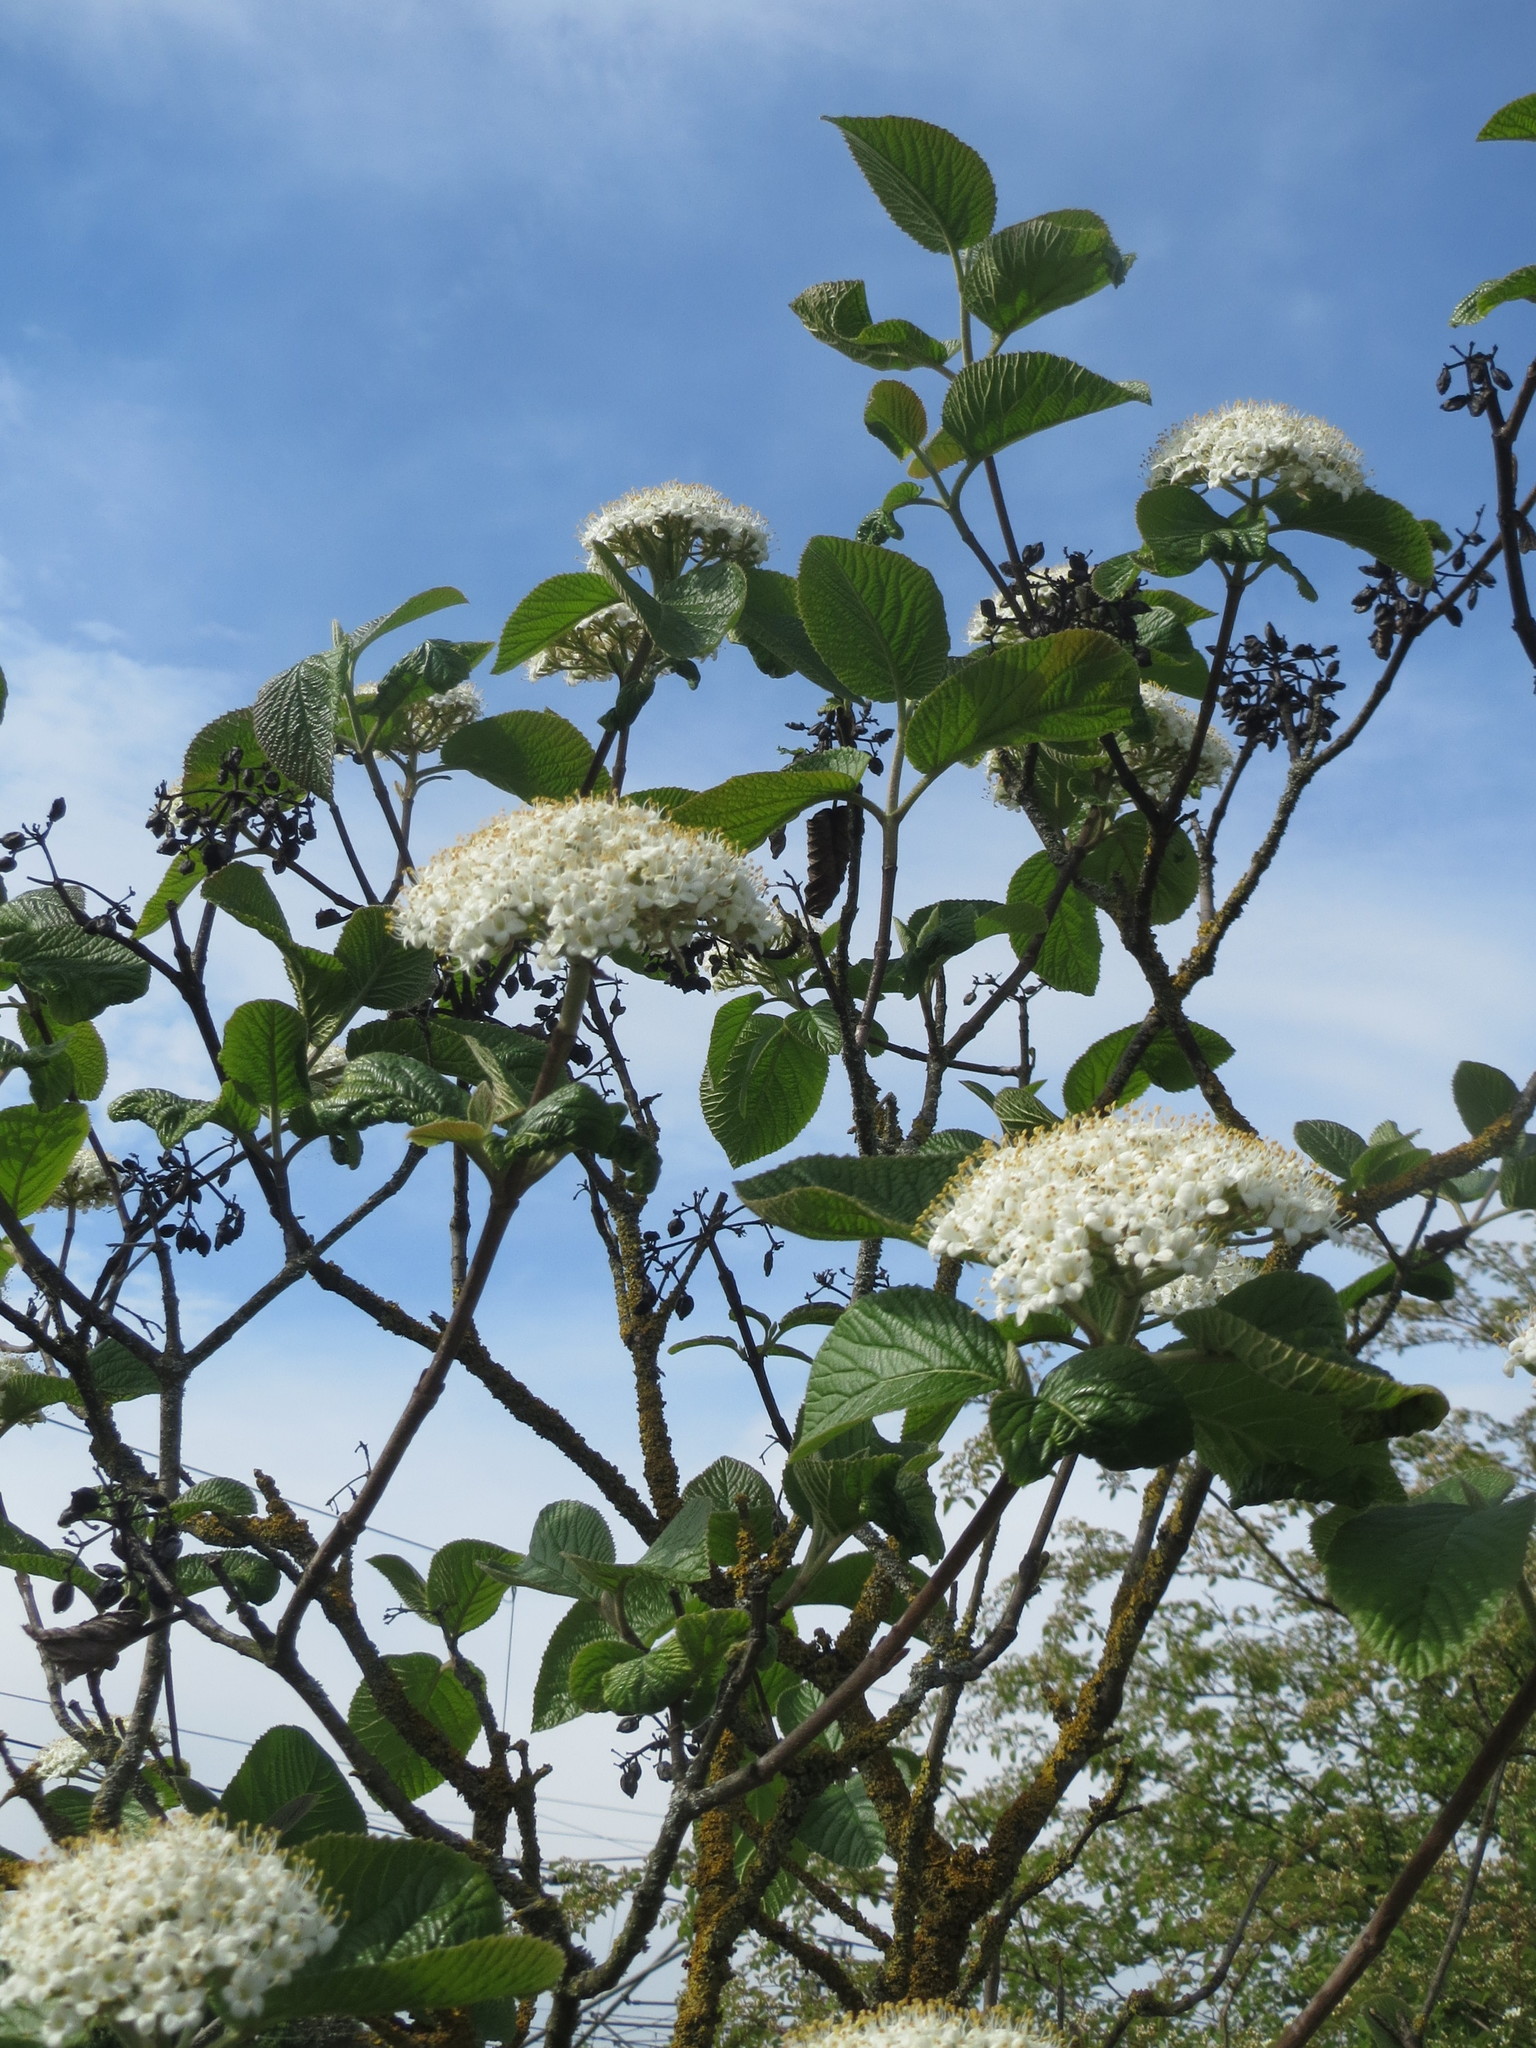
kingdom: Plantae
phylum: Tracheophyta
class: Magnoliopsida
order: Dipsacales
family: Viburnaceae
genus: Viburnum
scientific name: Viburnum lantana
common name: Wayfaring tree
